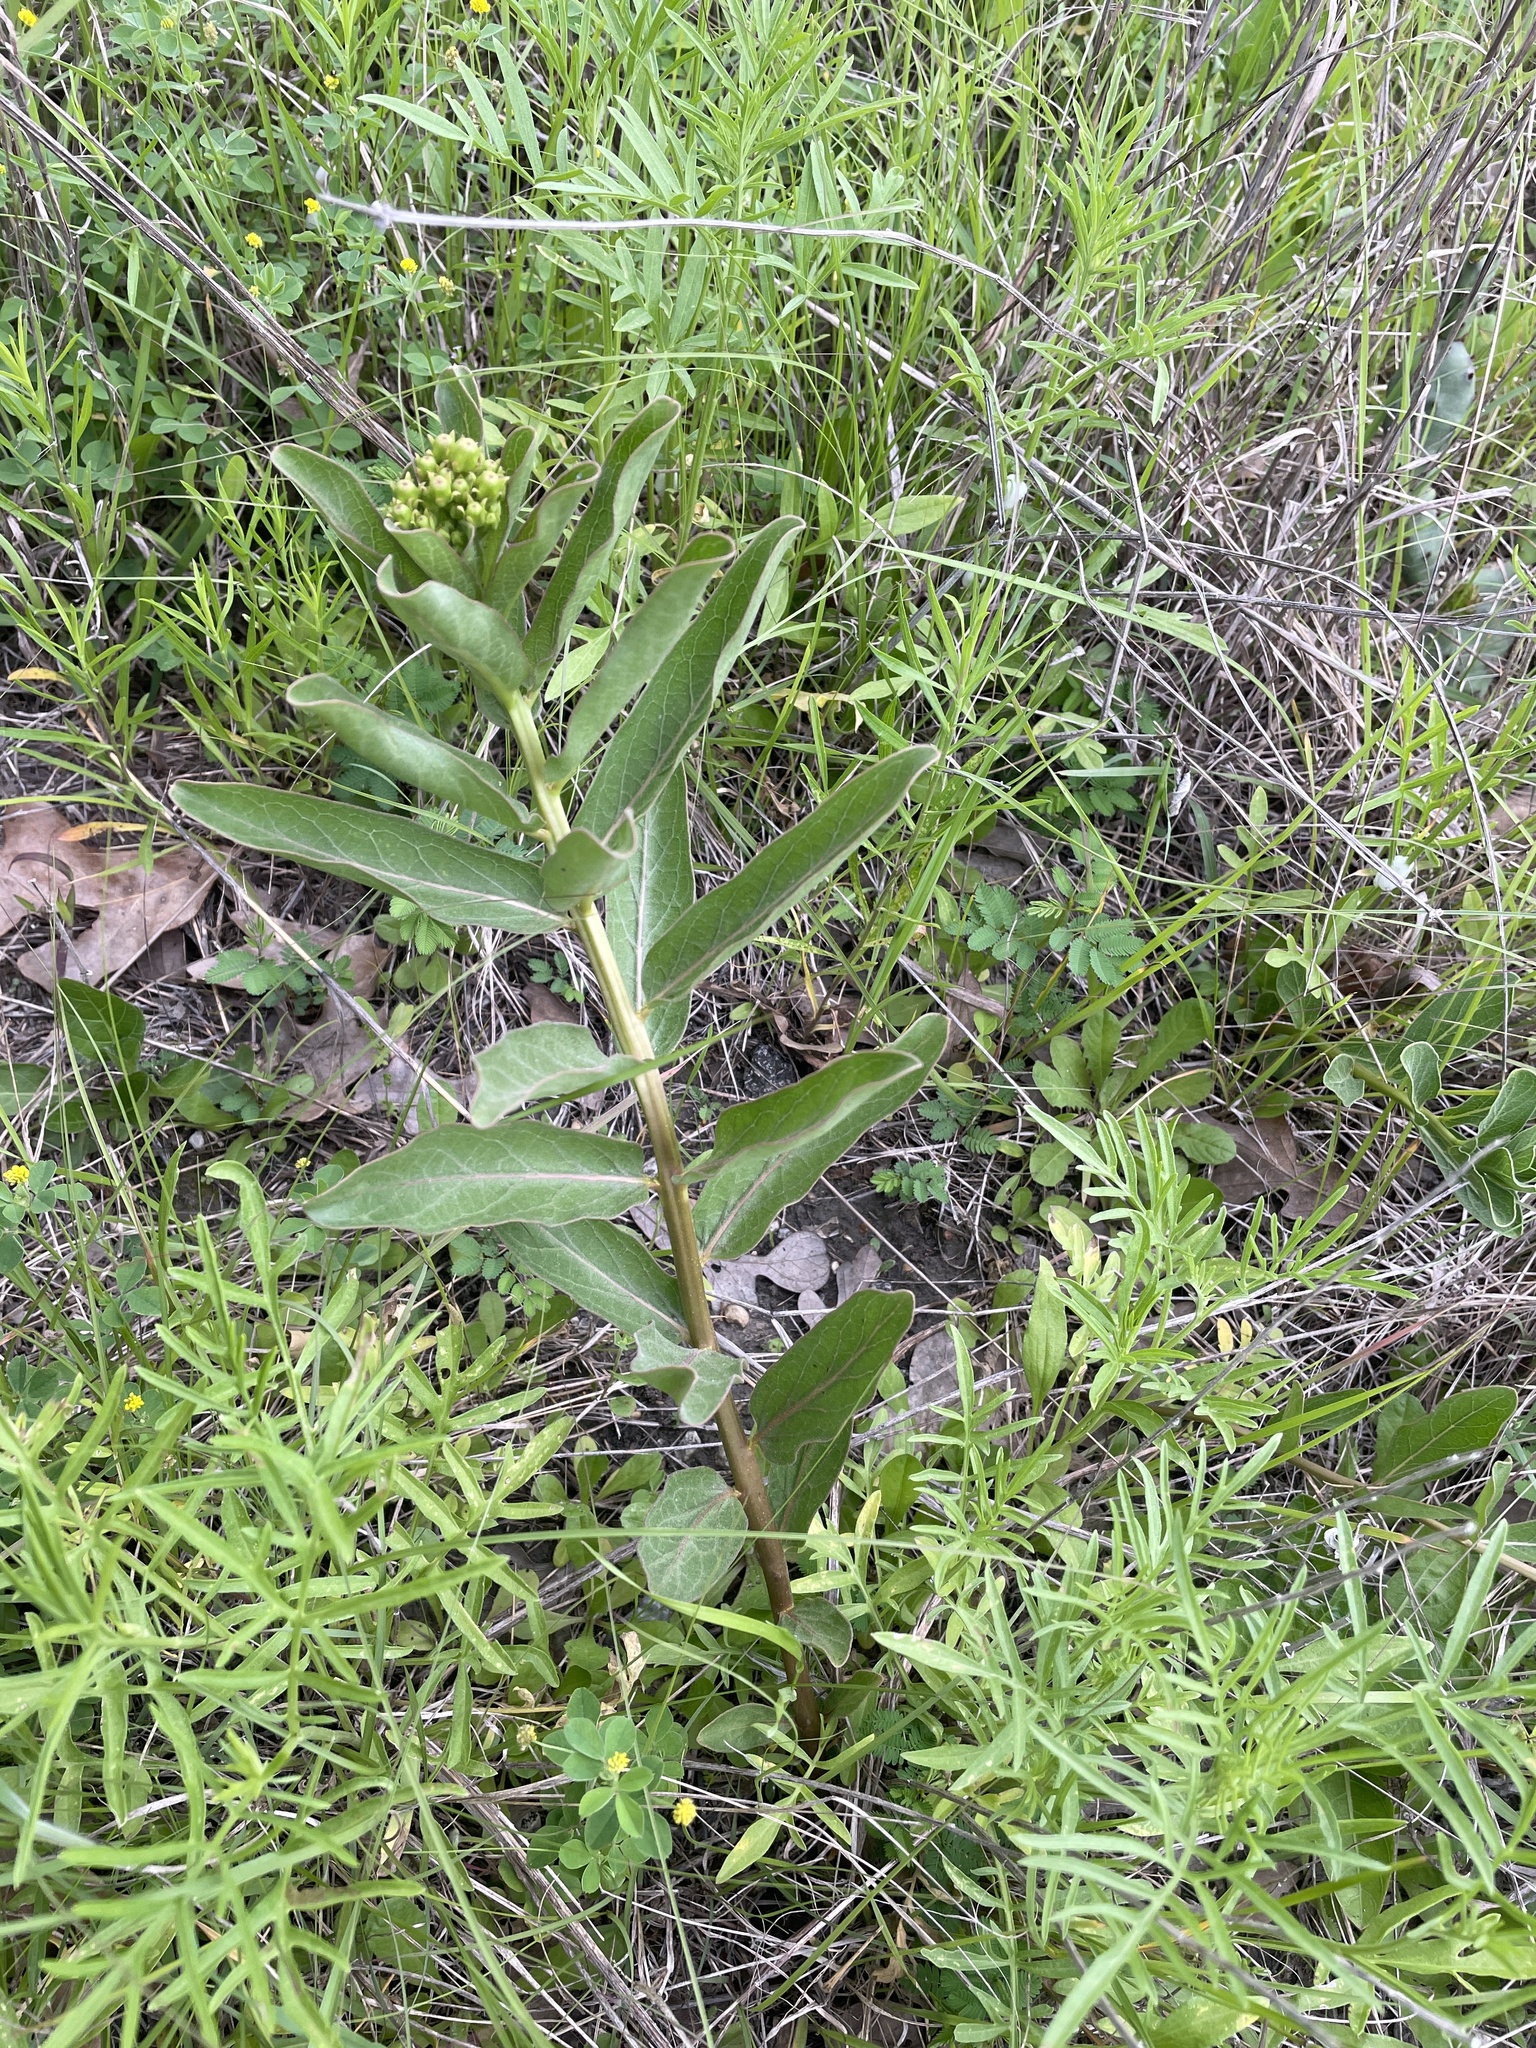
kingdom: Plantae
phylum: Tracheophyta
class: Magnoliopsida
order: Gentianales
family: Apocynaceae
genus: Asclepias
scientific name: Asclepias viridis
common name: Antelope-horns
